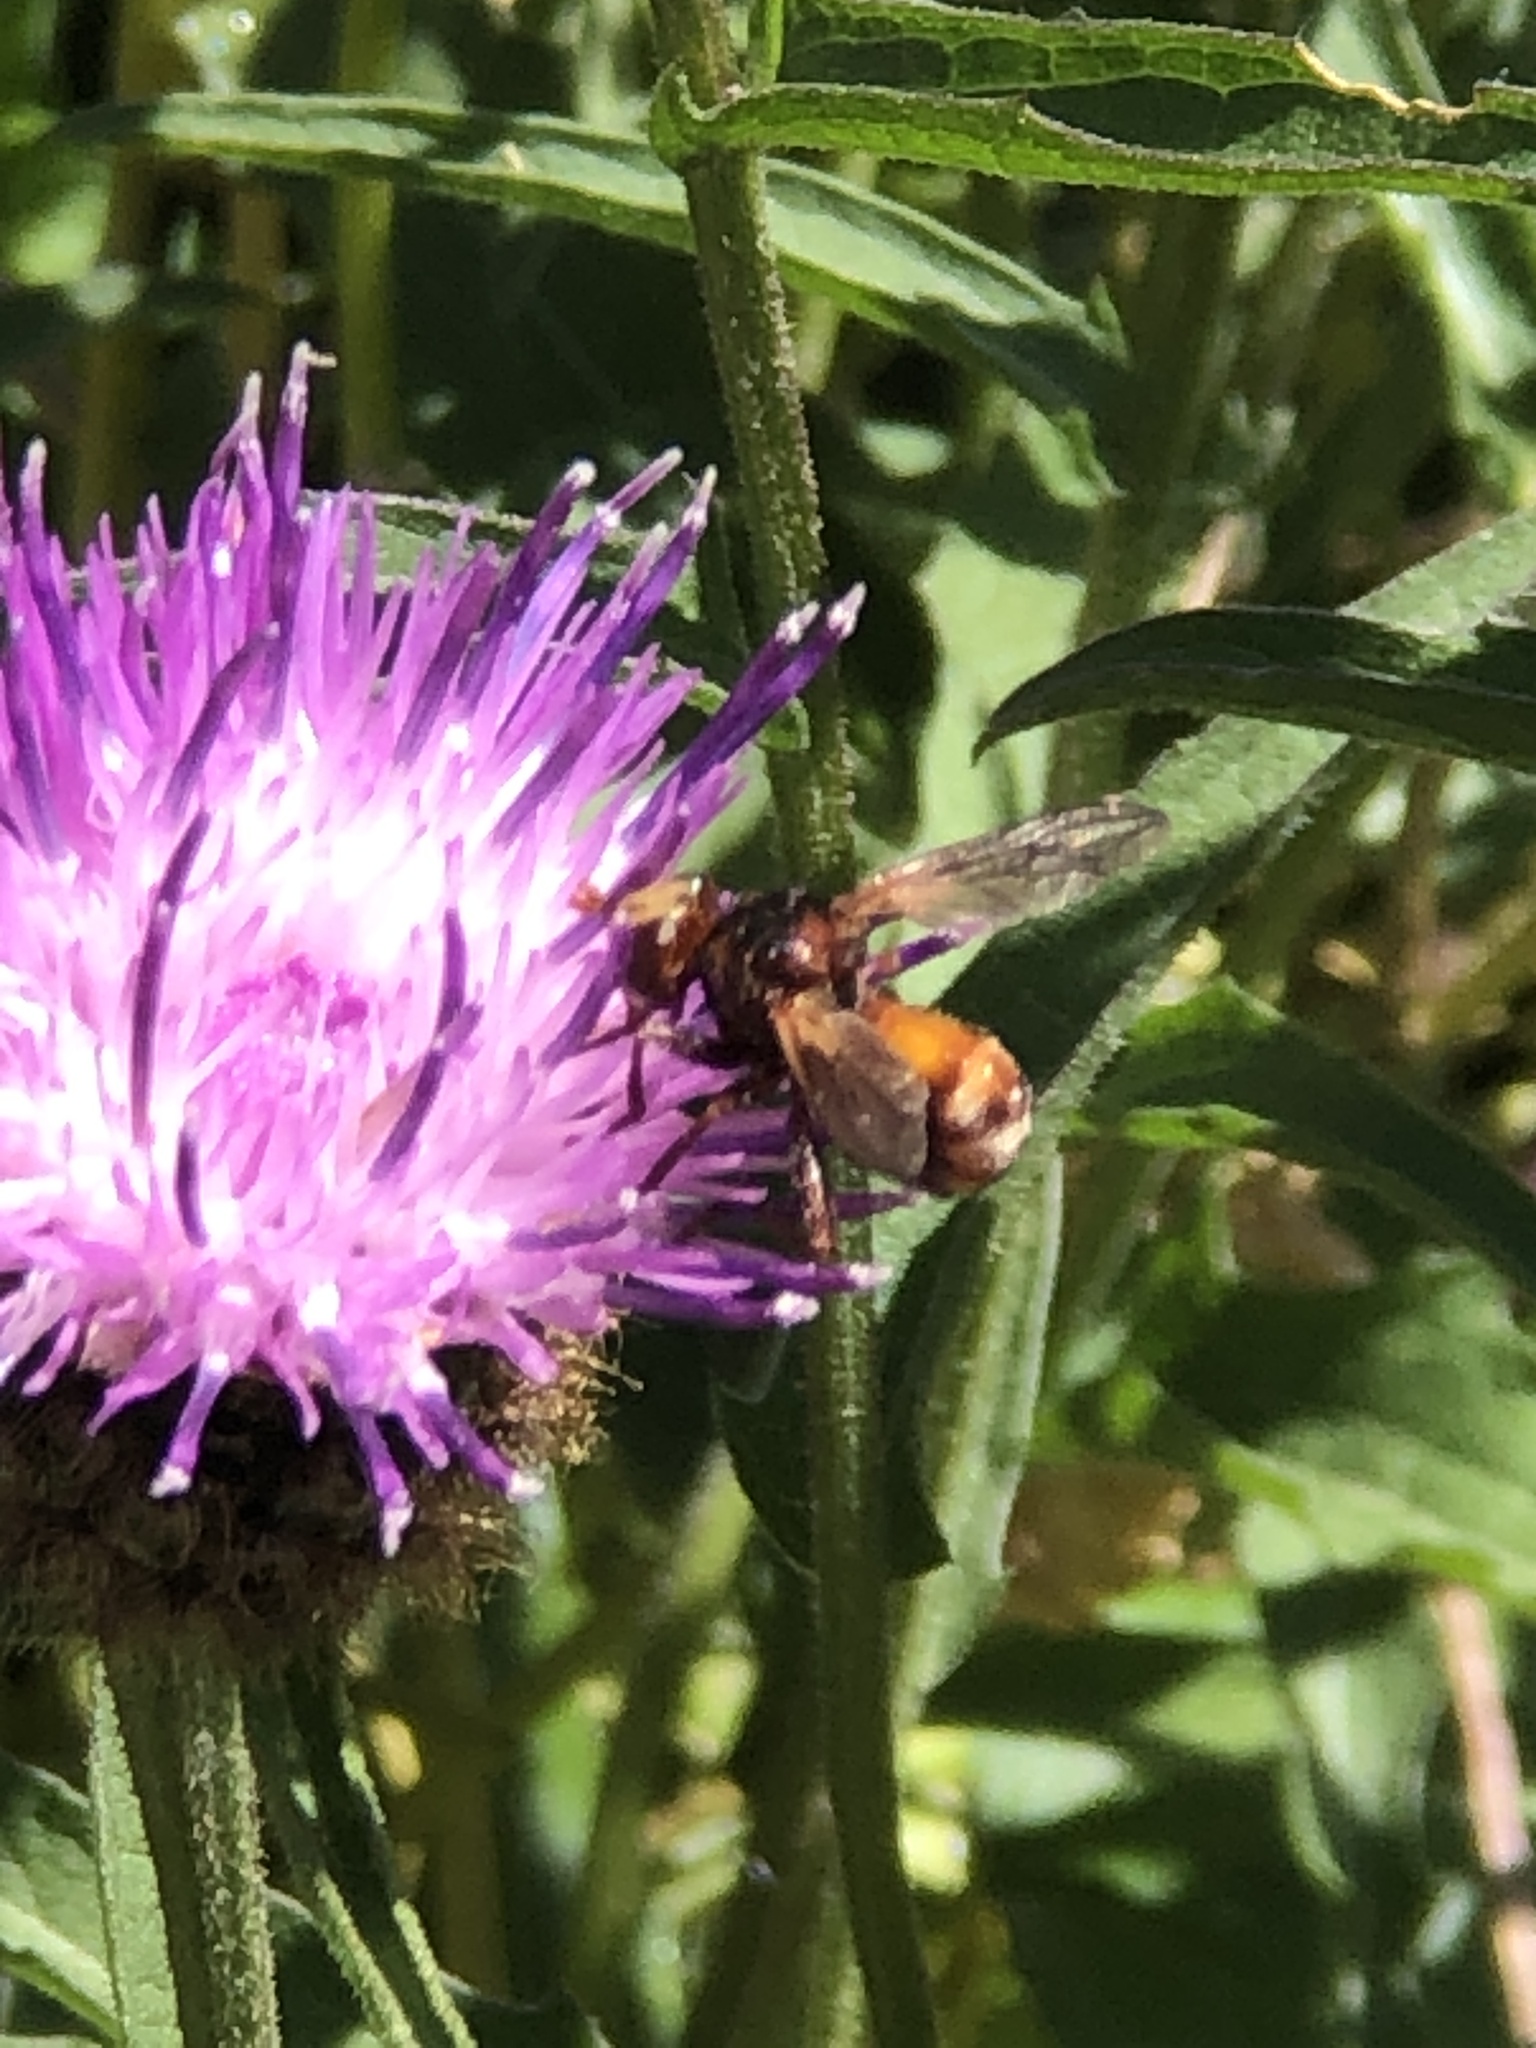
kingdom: Animalia
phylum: Arthropoda
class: Insecta
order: Diptera
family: Conopidae
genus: Sicus
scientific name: Sicus ferrugineus
